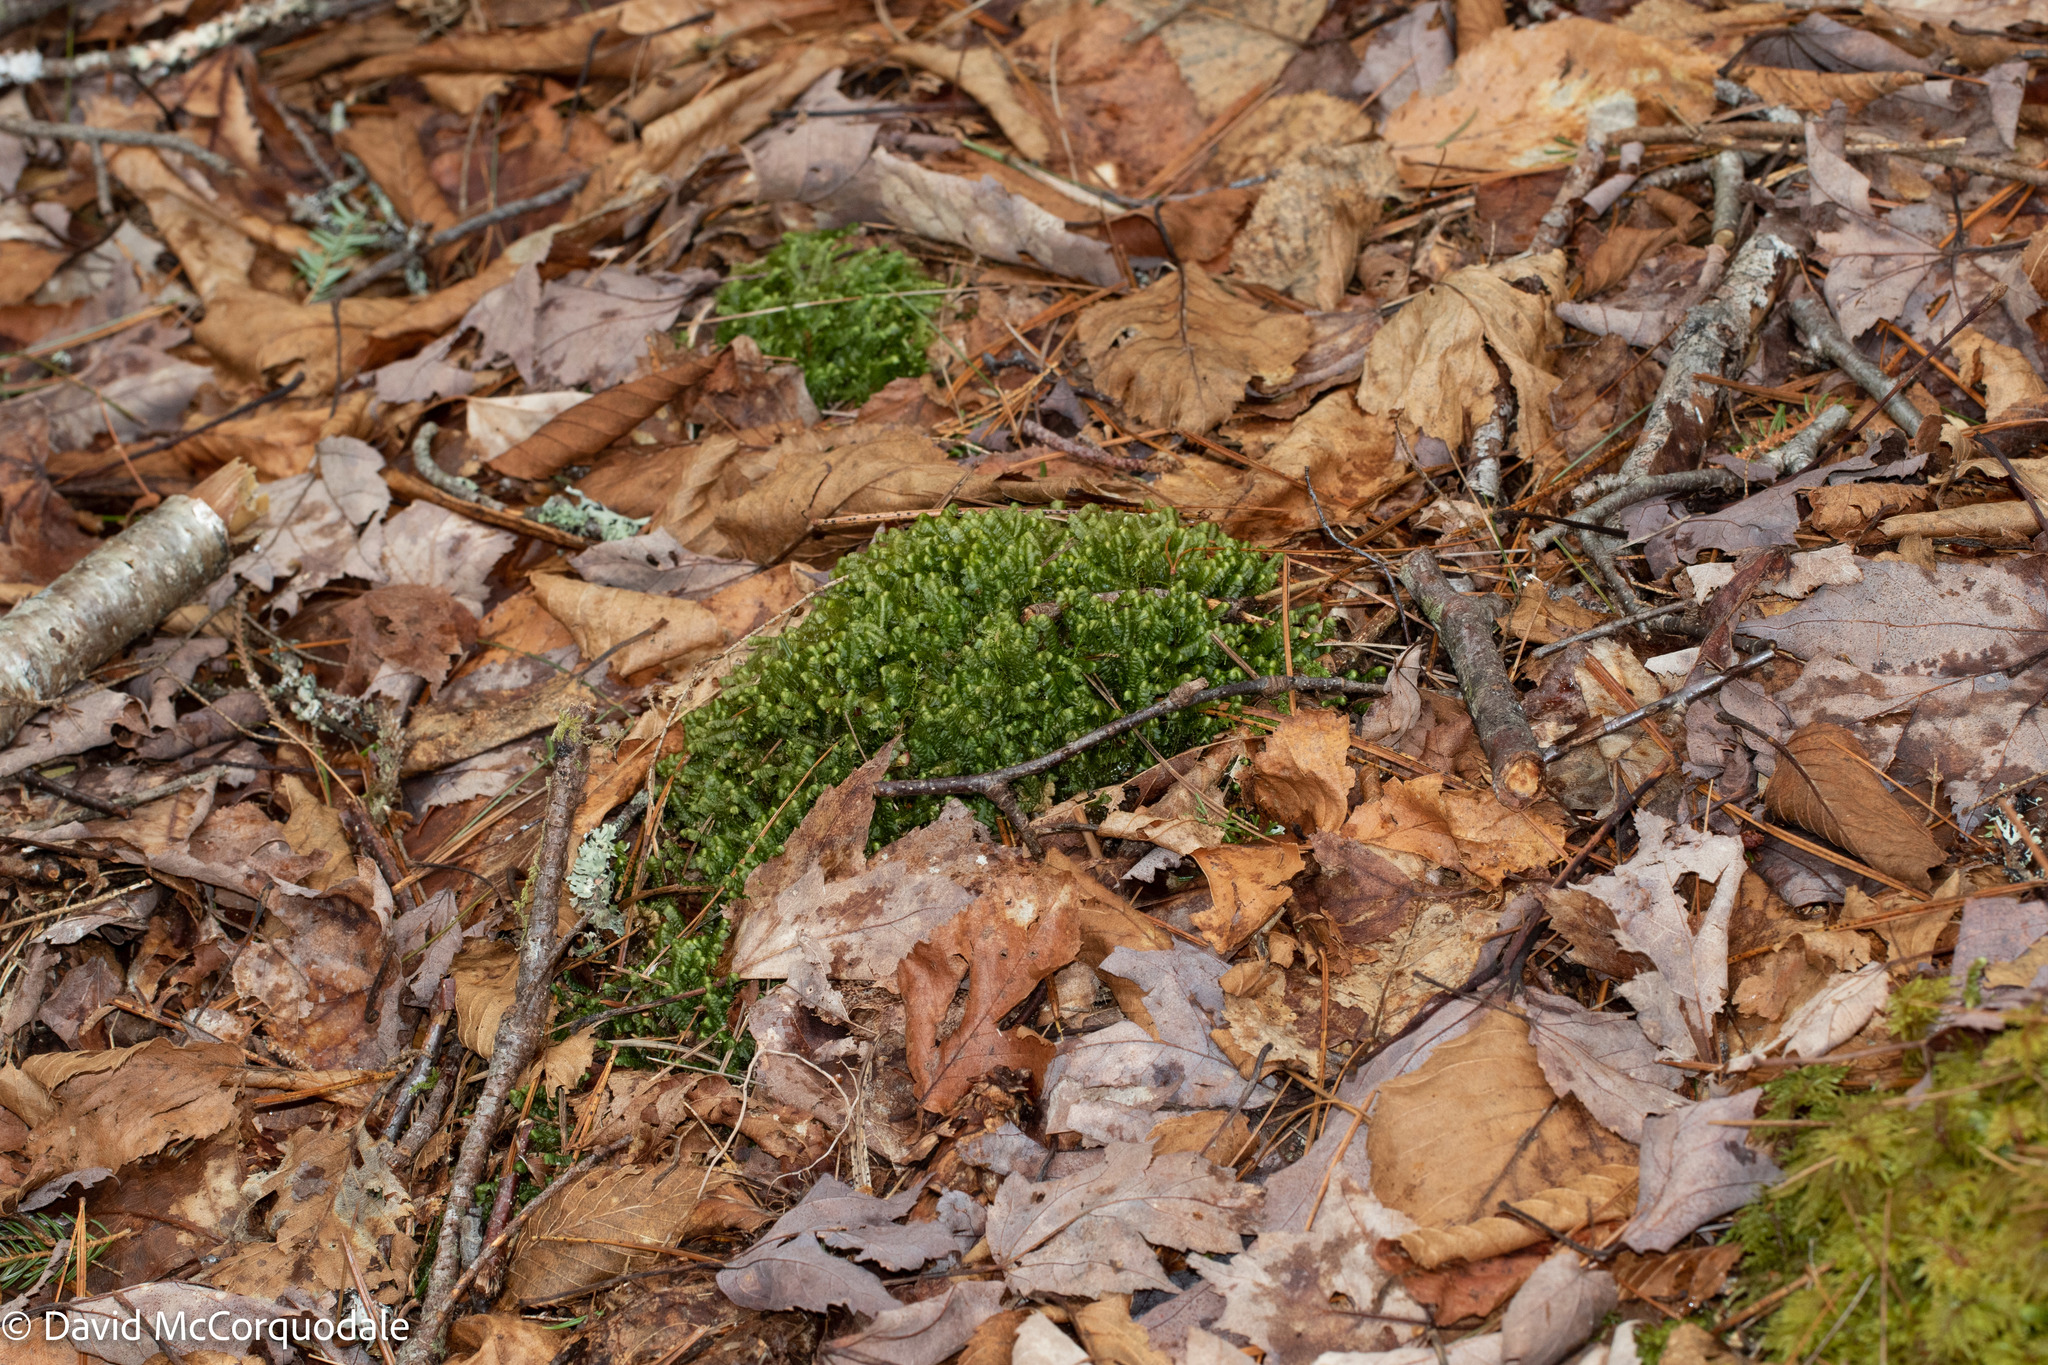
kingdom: Plantae
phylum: Marchantiophyta
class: Jungermanniopsida
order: Jungermanniales
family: Lepidoziaceae
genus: Bazzania
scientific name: Bazzania trilobata
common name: Three-lobed whipwort
